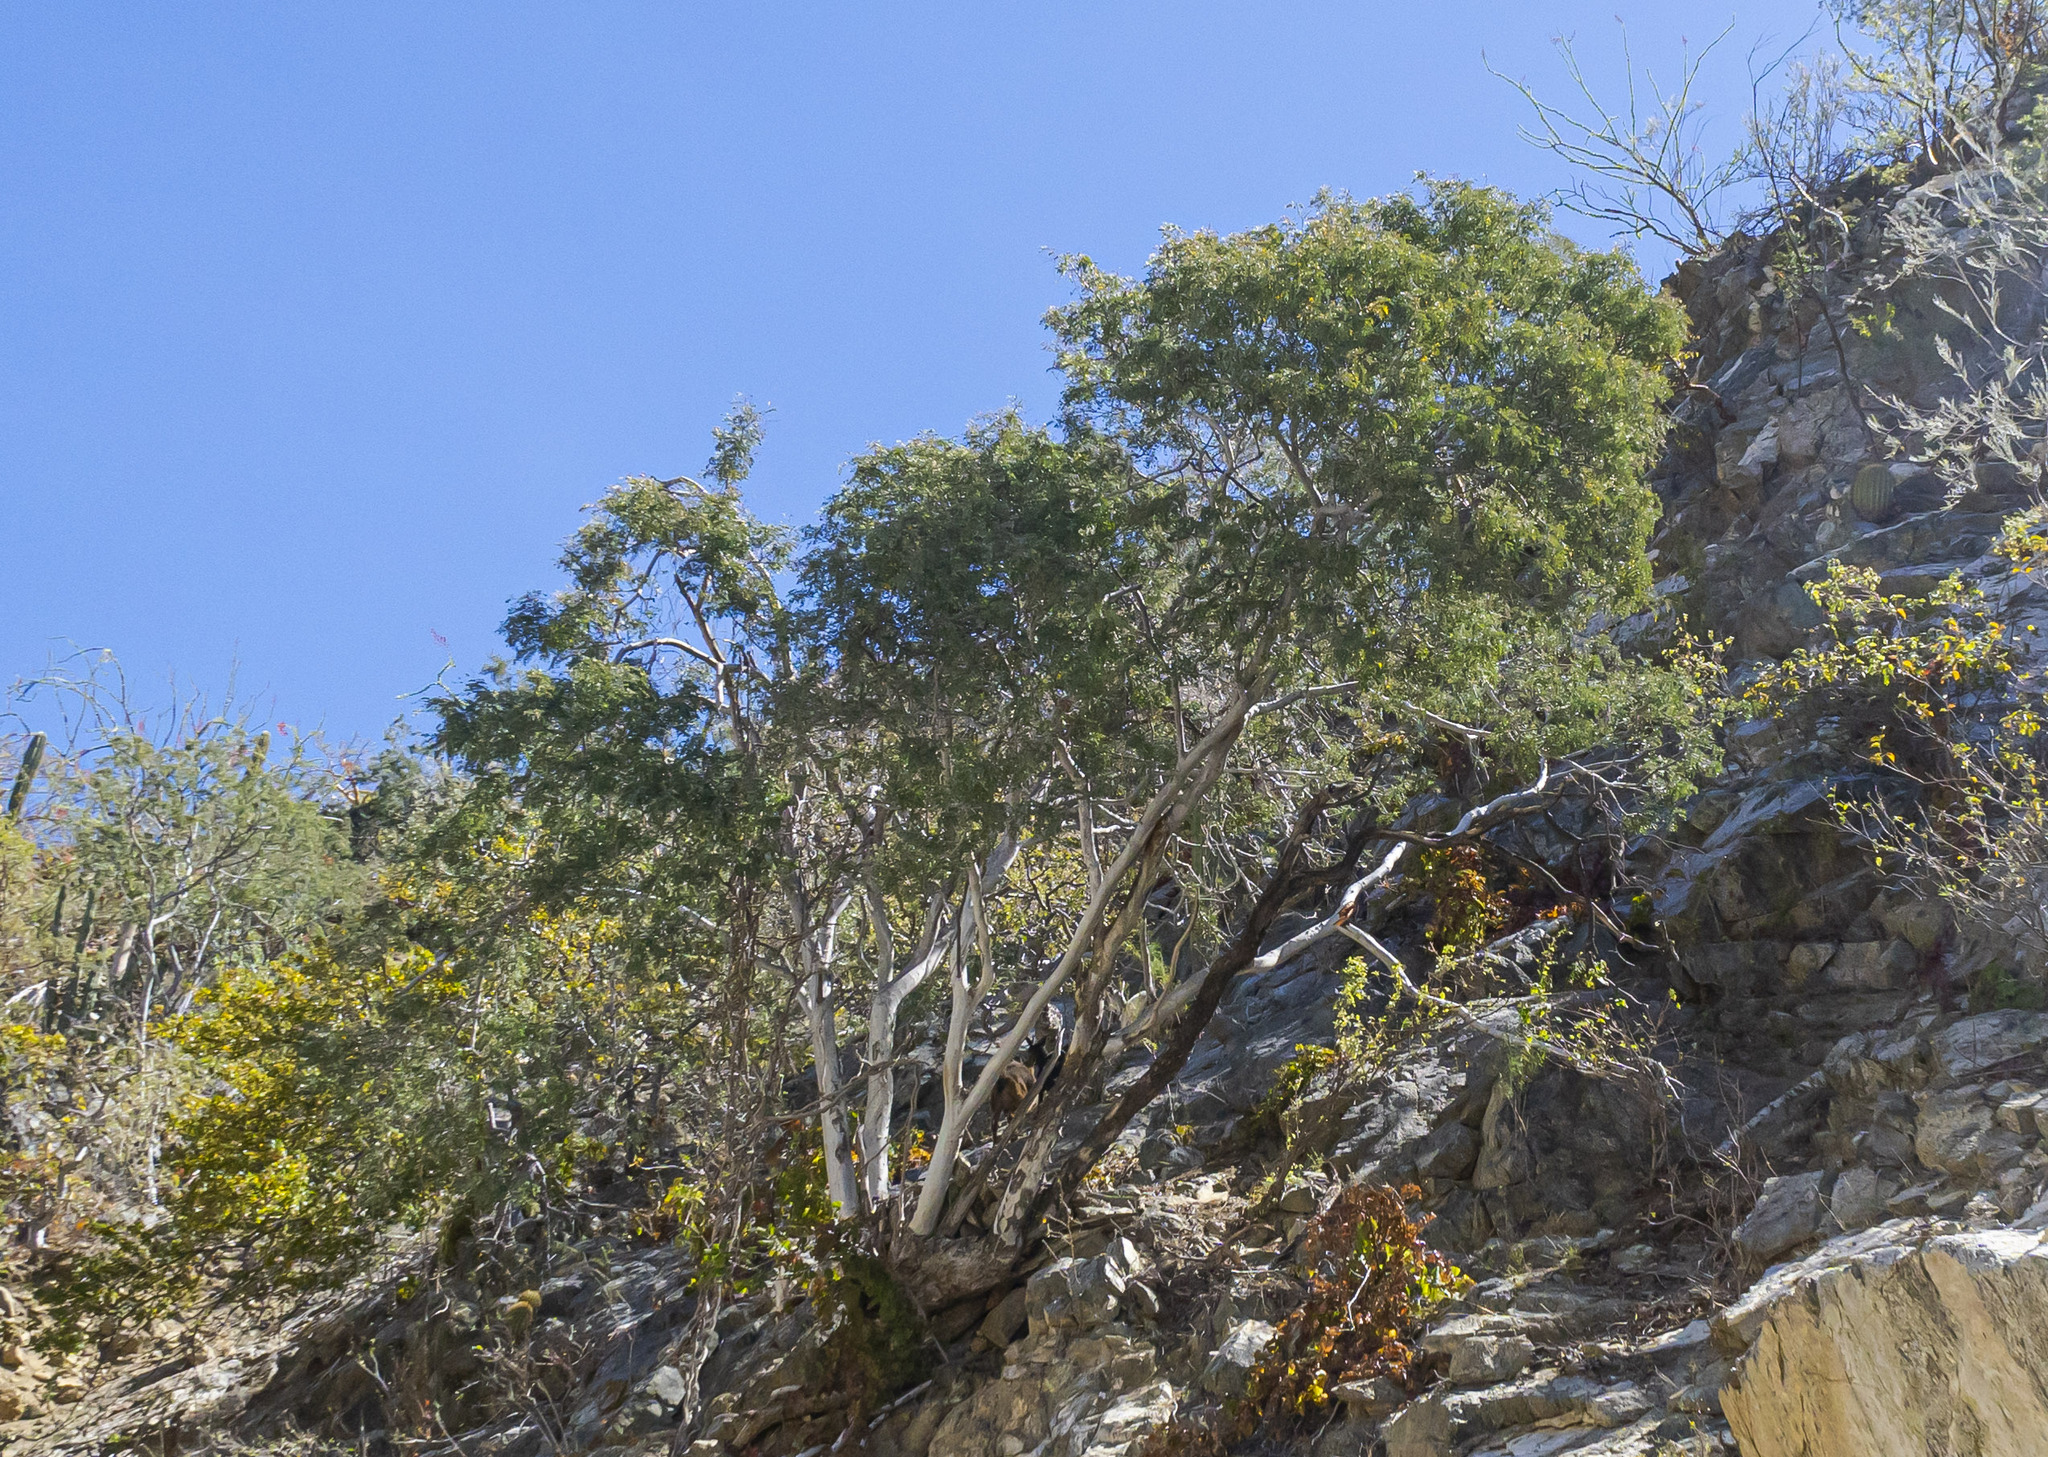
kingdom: Plantae
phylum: Tracheophyta
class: Magnoliopsida
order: Fabales
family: Fabaceae
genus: Lysiloma
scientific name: Lysiloma candidum
